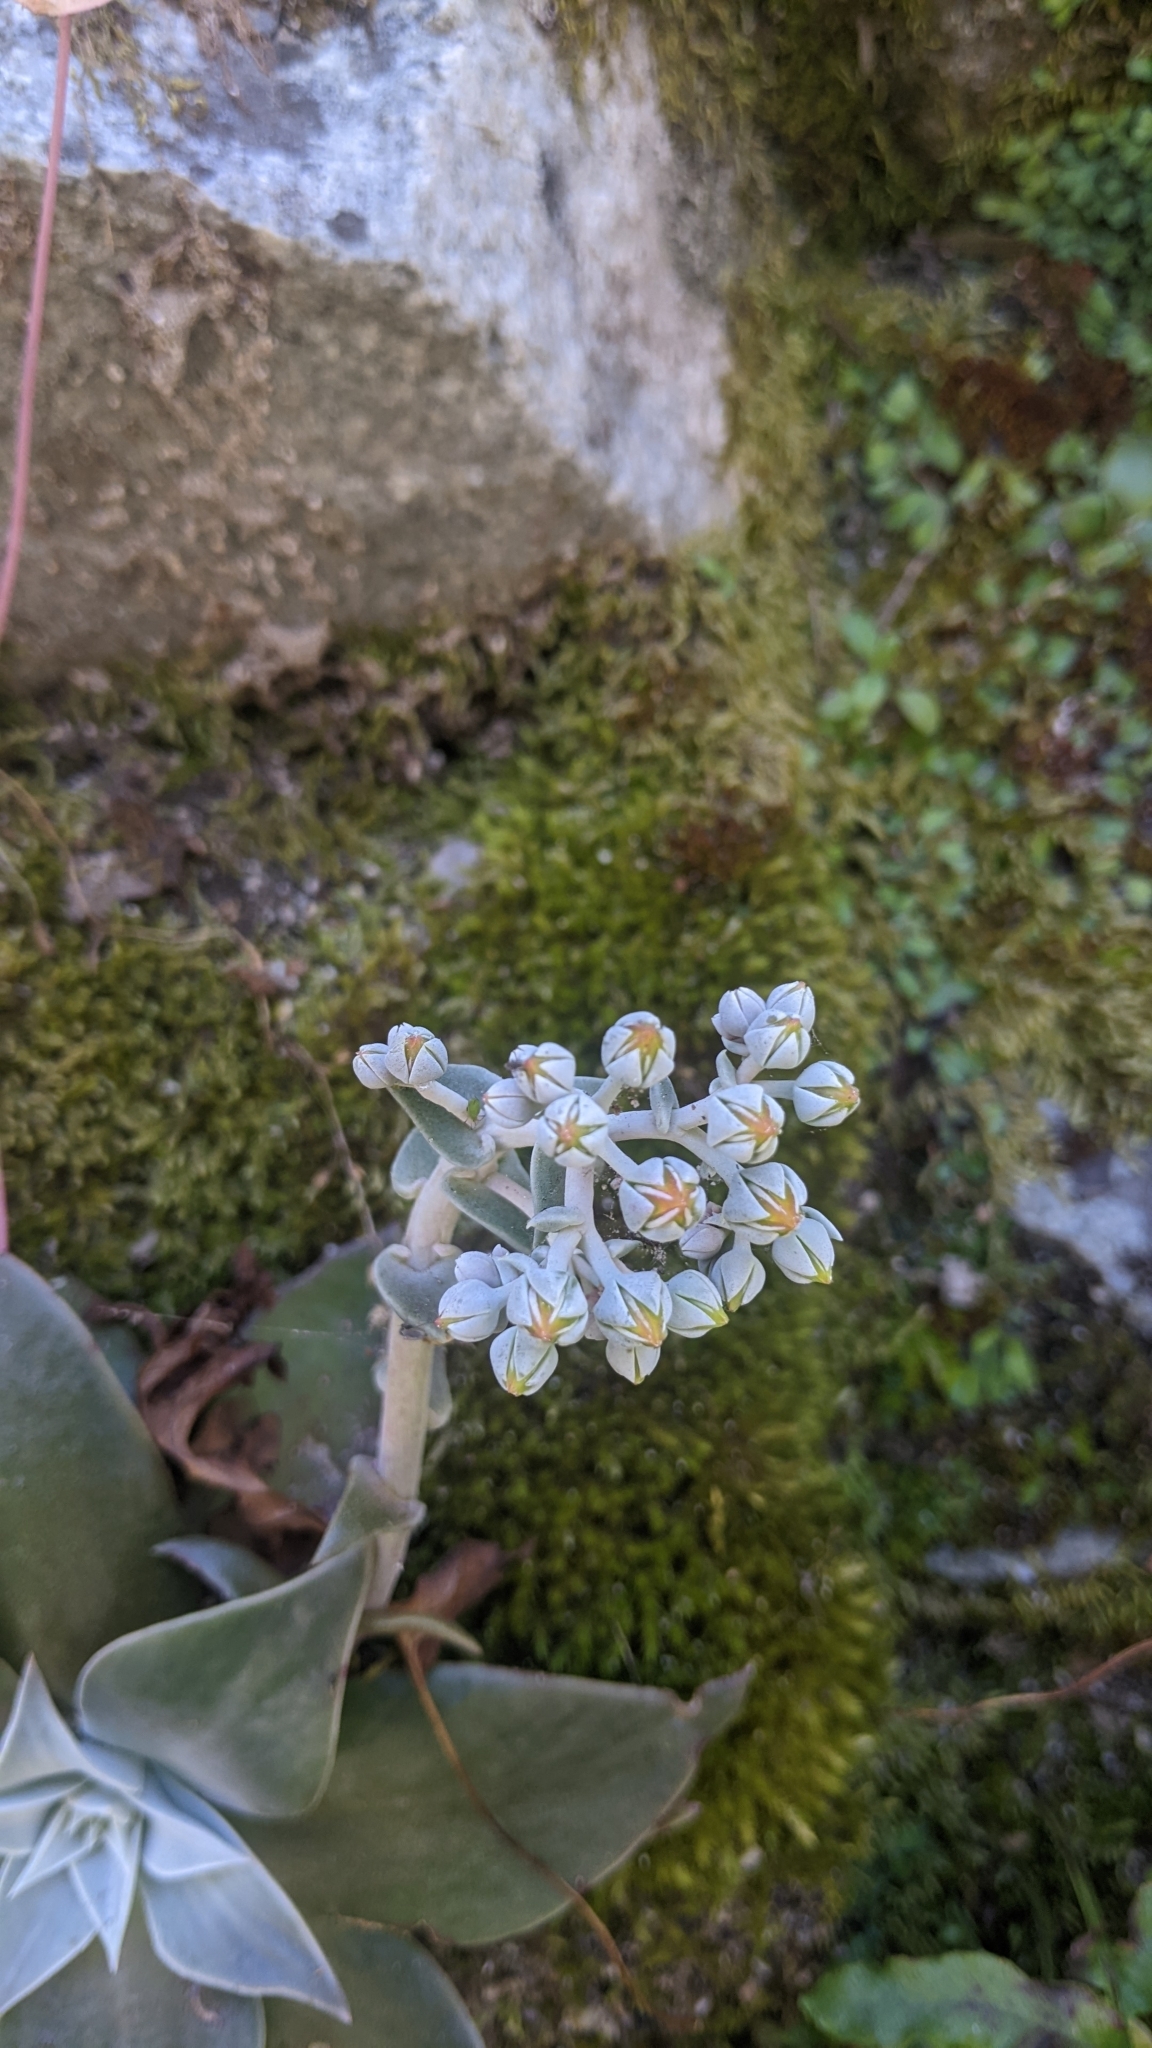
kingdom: Plantae
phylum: Tracheophyta
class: Magnoliopsida
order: Saxifragales
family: Crassulaceae
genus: Dudleya
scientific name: Dudleya cymosa
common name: Canyon dudleya
